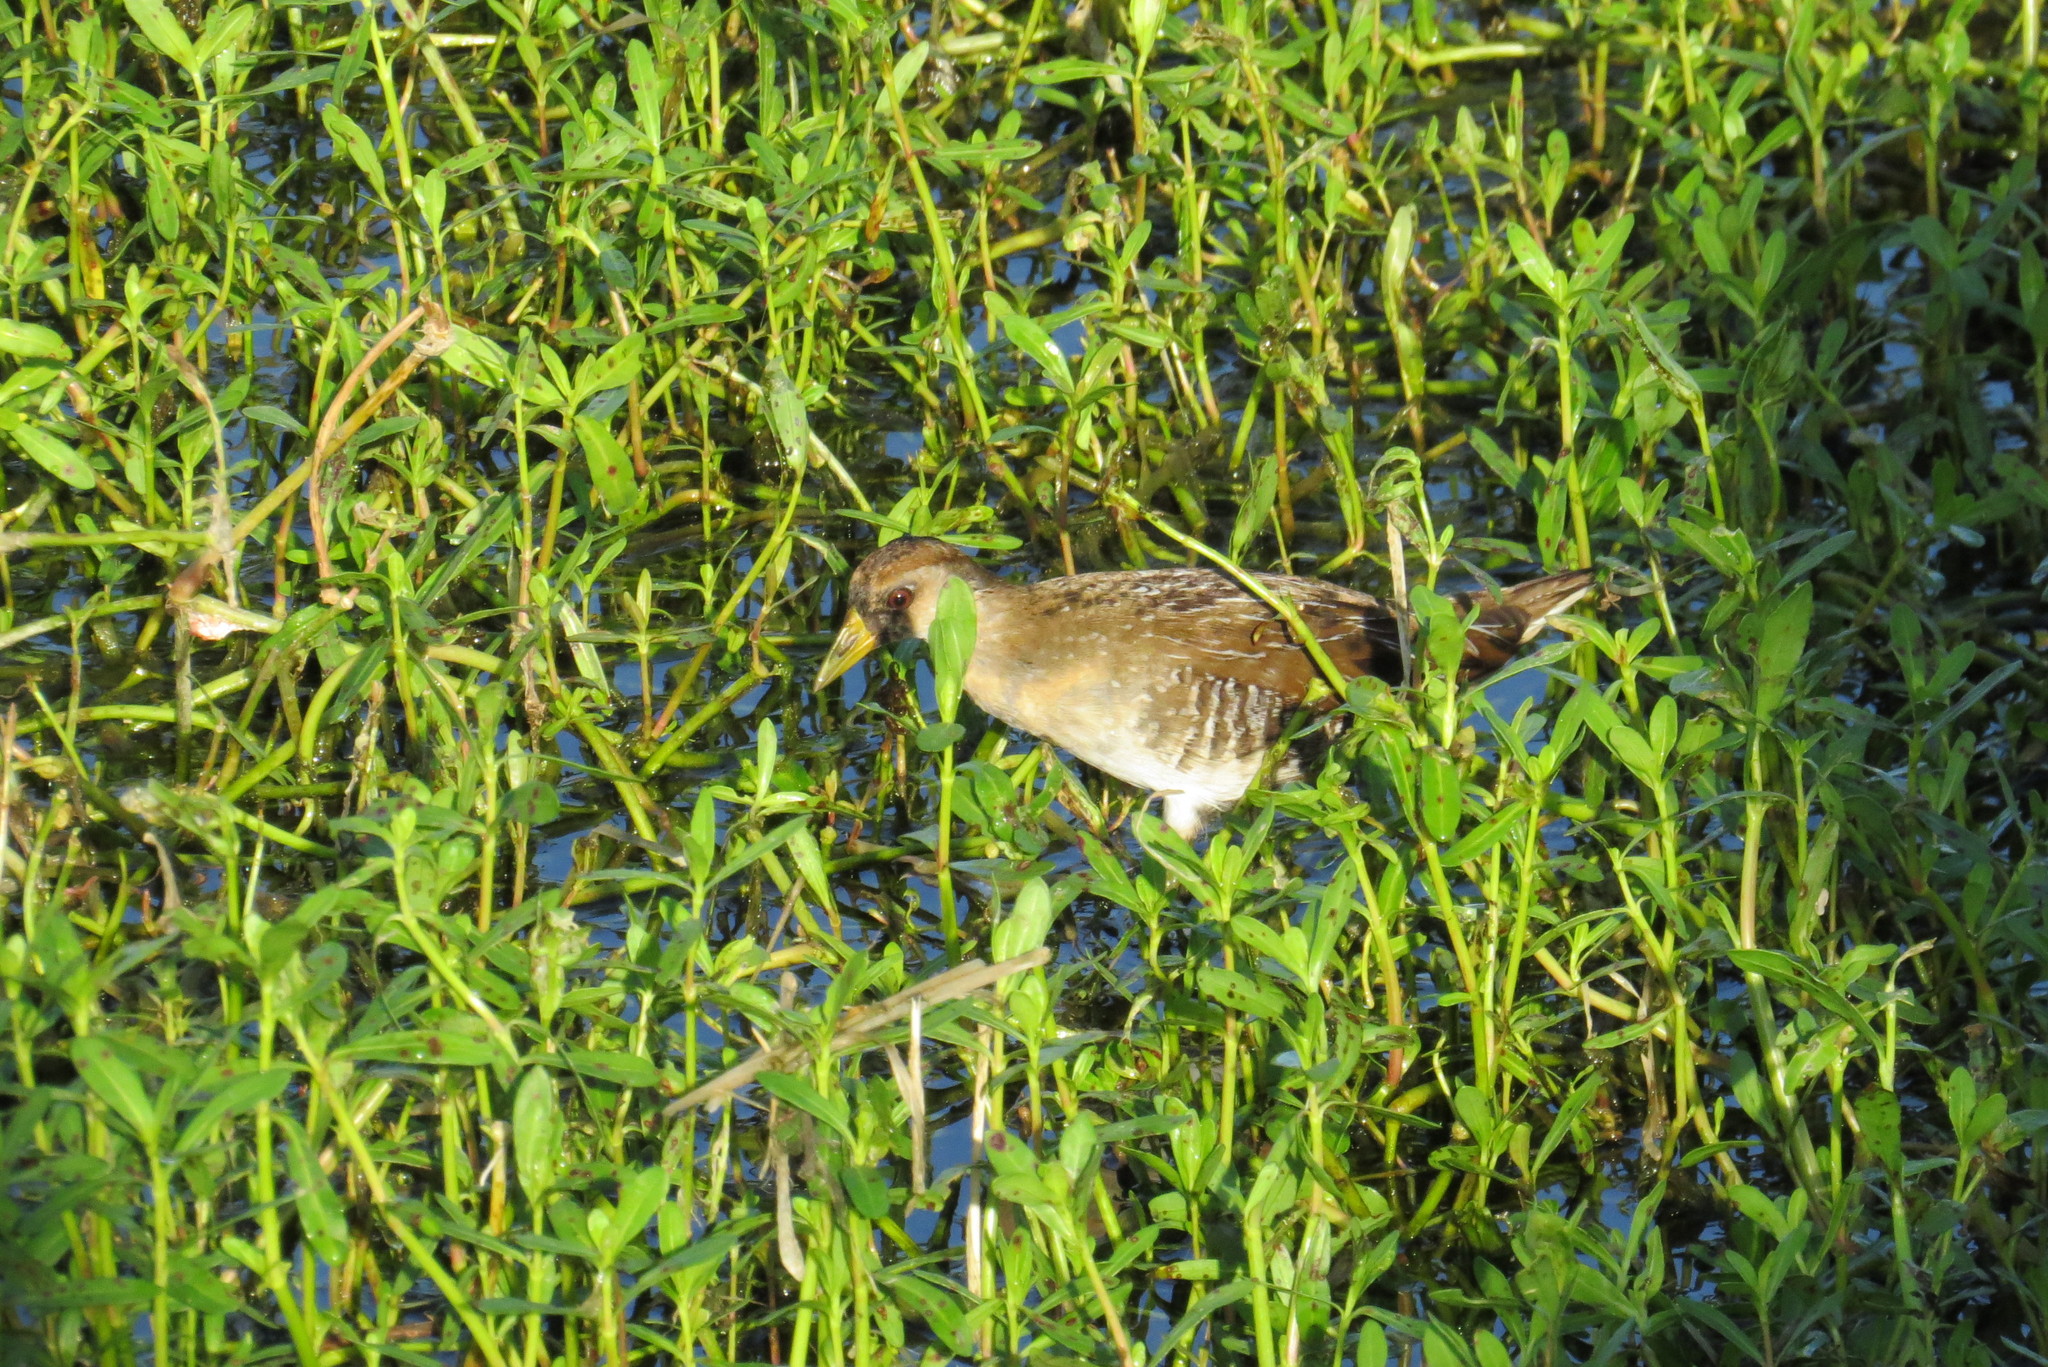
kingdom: Animalia
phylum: Chordata
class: Aves
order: Gruiformes
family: Rallidae
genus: Porzana
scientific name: Porzana carolina
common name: Sora
